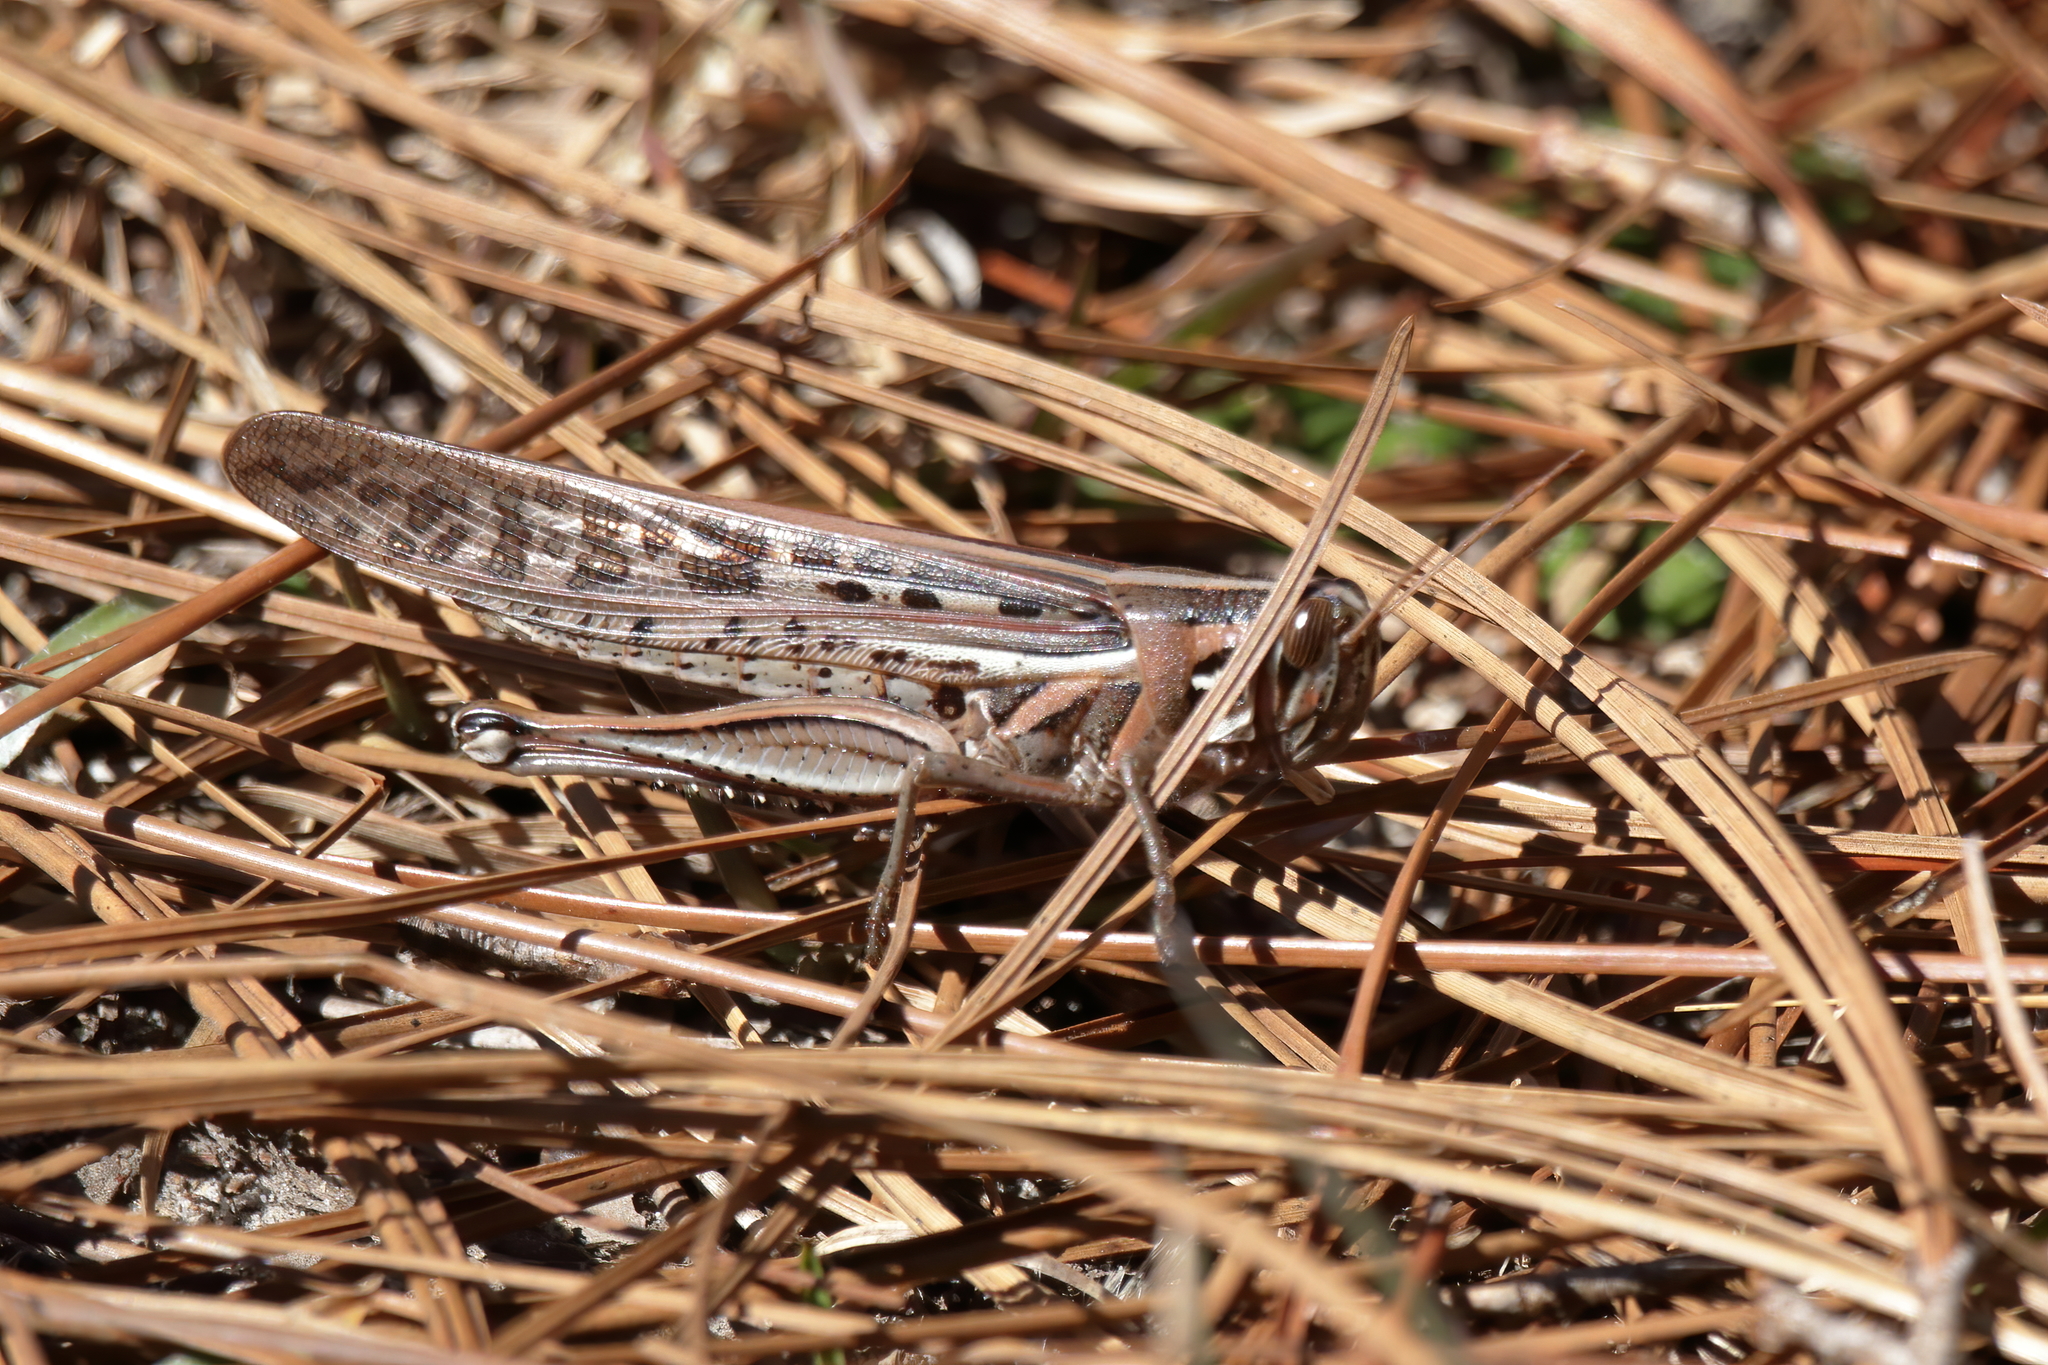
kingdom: Animalia
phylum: Arthropoda
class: Insecta
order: Orthoptera
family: Acrididae
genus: Schistocerca
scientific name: Schistocerca americana
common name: American bird locust
